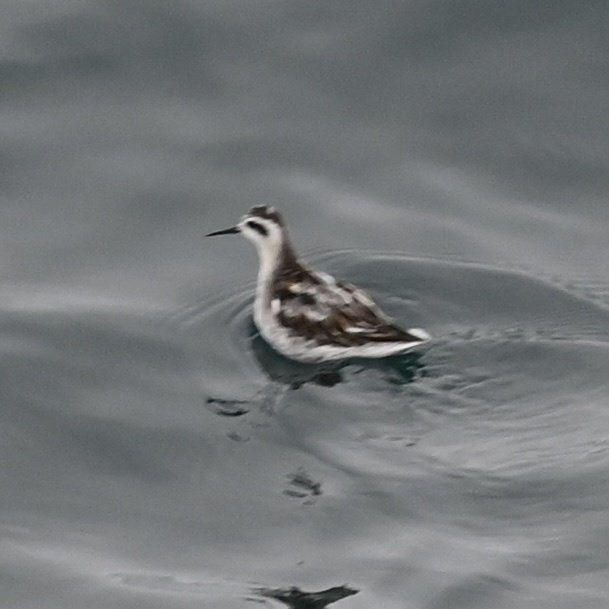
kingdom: Animalia
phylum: Chordata
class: Aves
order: Charadriiformes
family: Scolopacidae
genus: Phalaropus
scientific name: Phalaropus lobatus
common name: Red-necked phalarope
